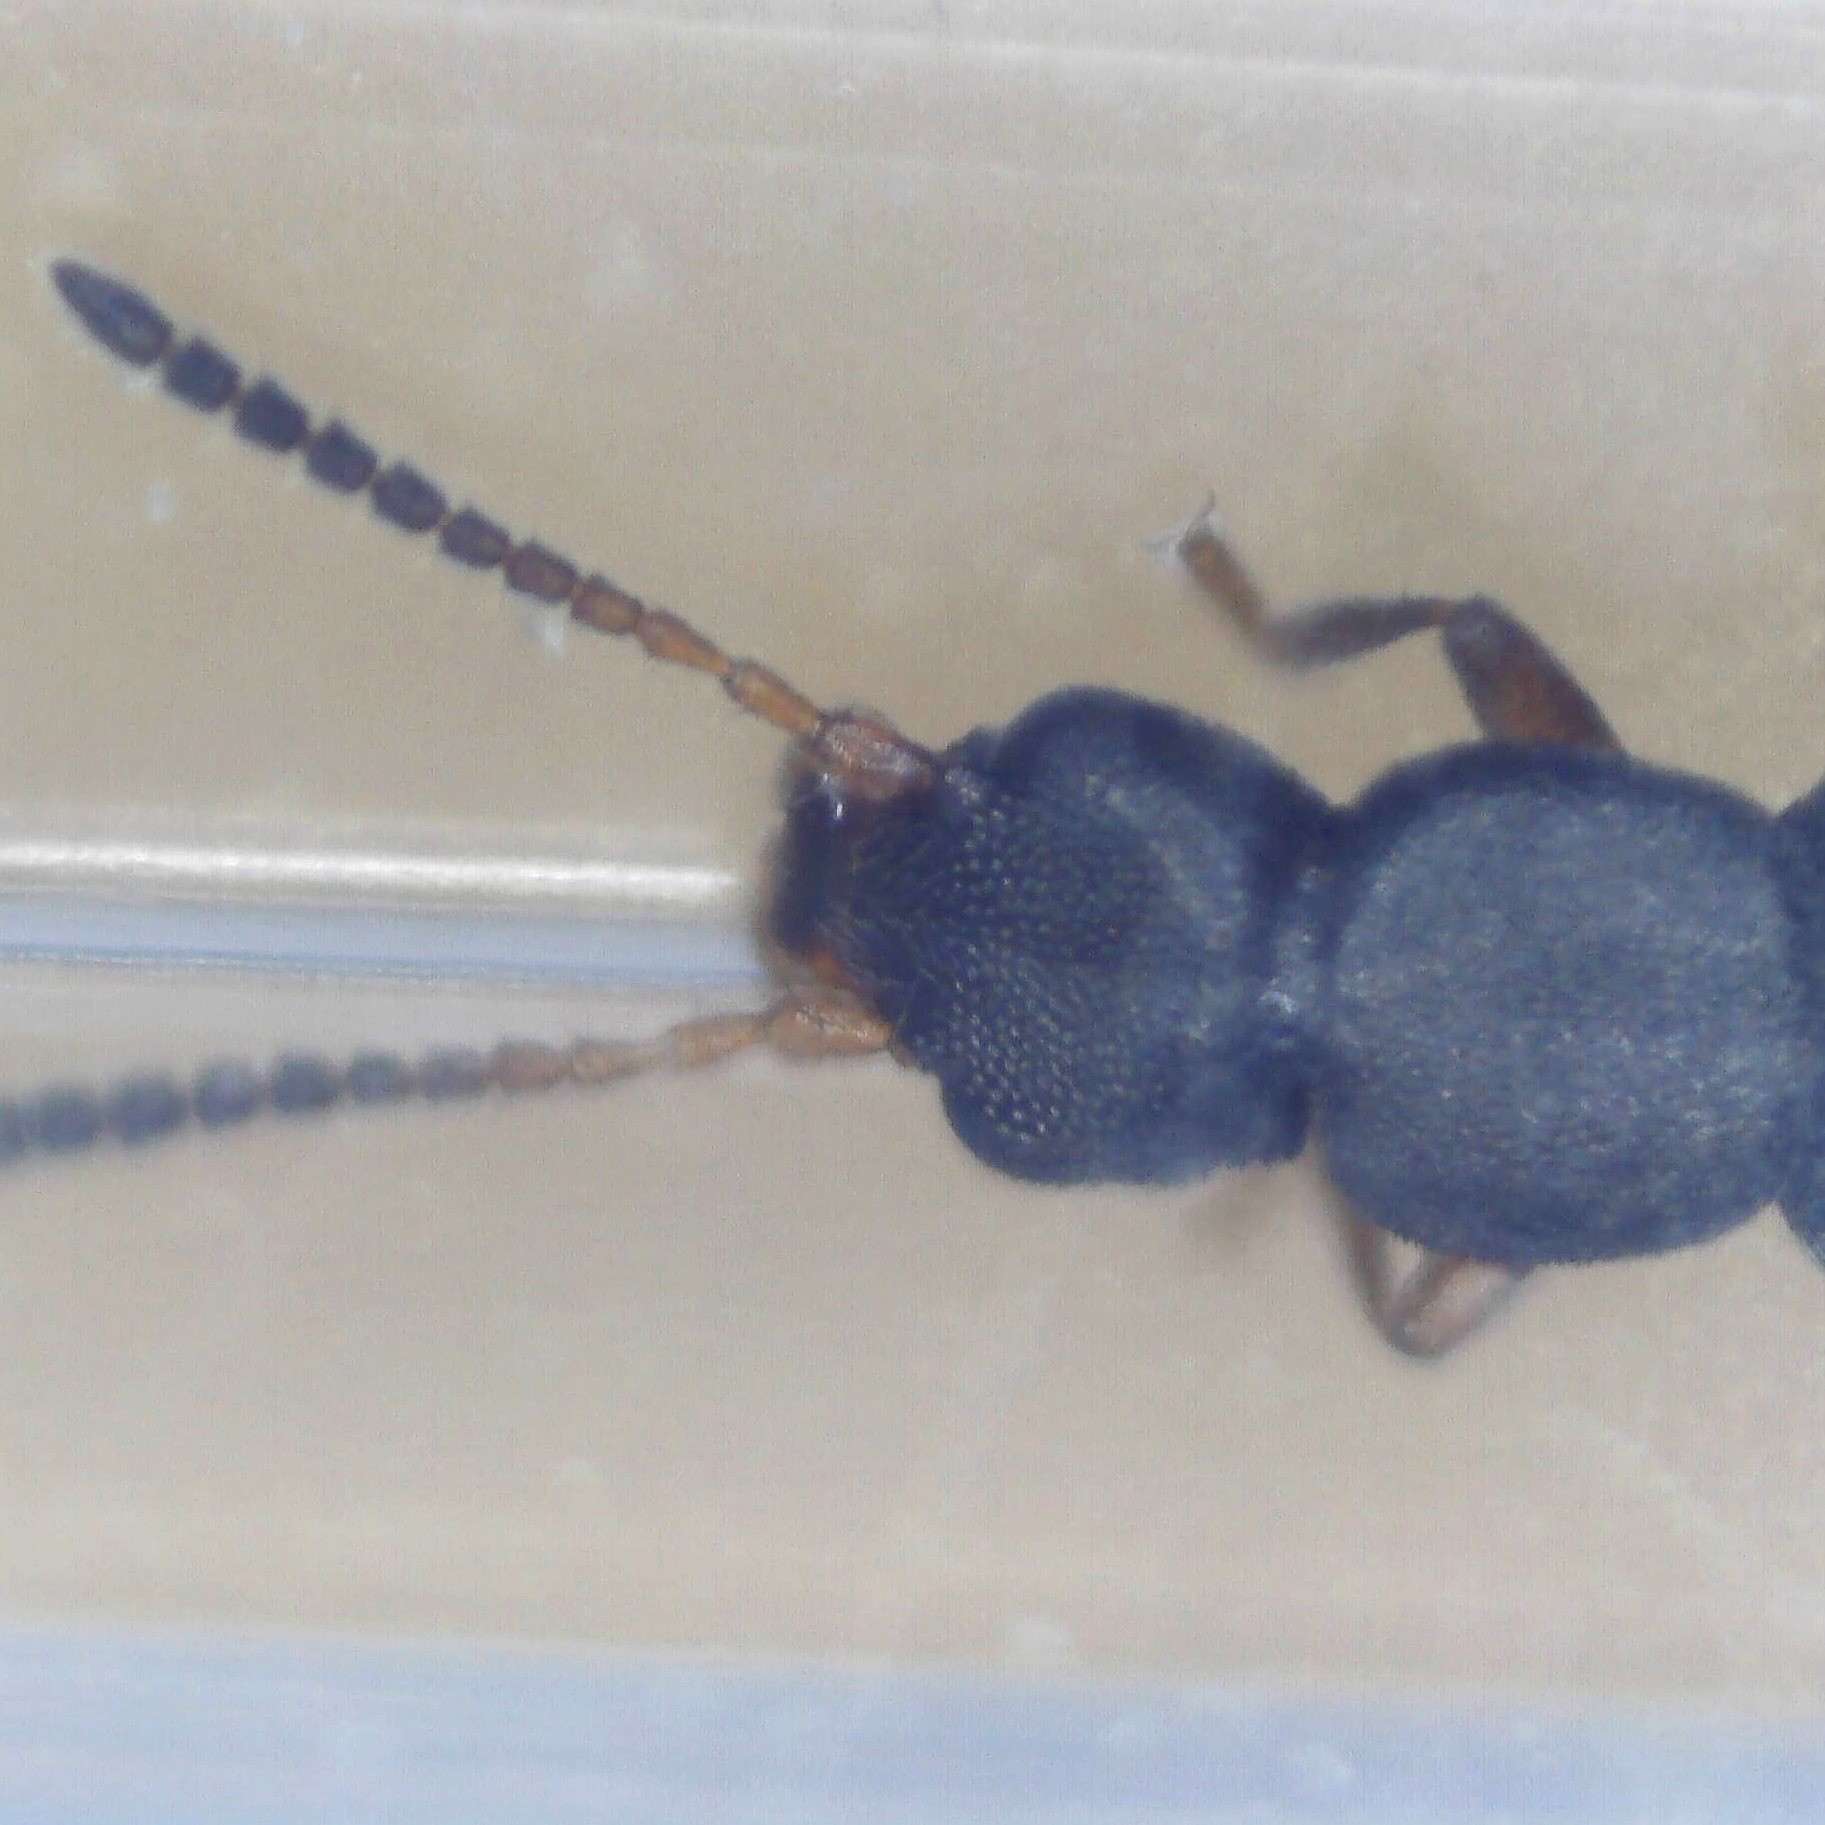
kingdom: Animalia
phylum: Arthropoda
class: Insecta
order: Coleoptera
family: Staphylinidae
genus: Hygronoma
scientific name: Hygronoma dimidiata
